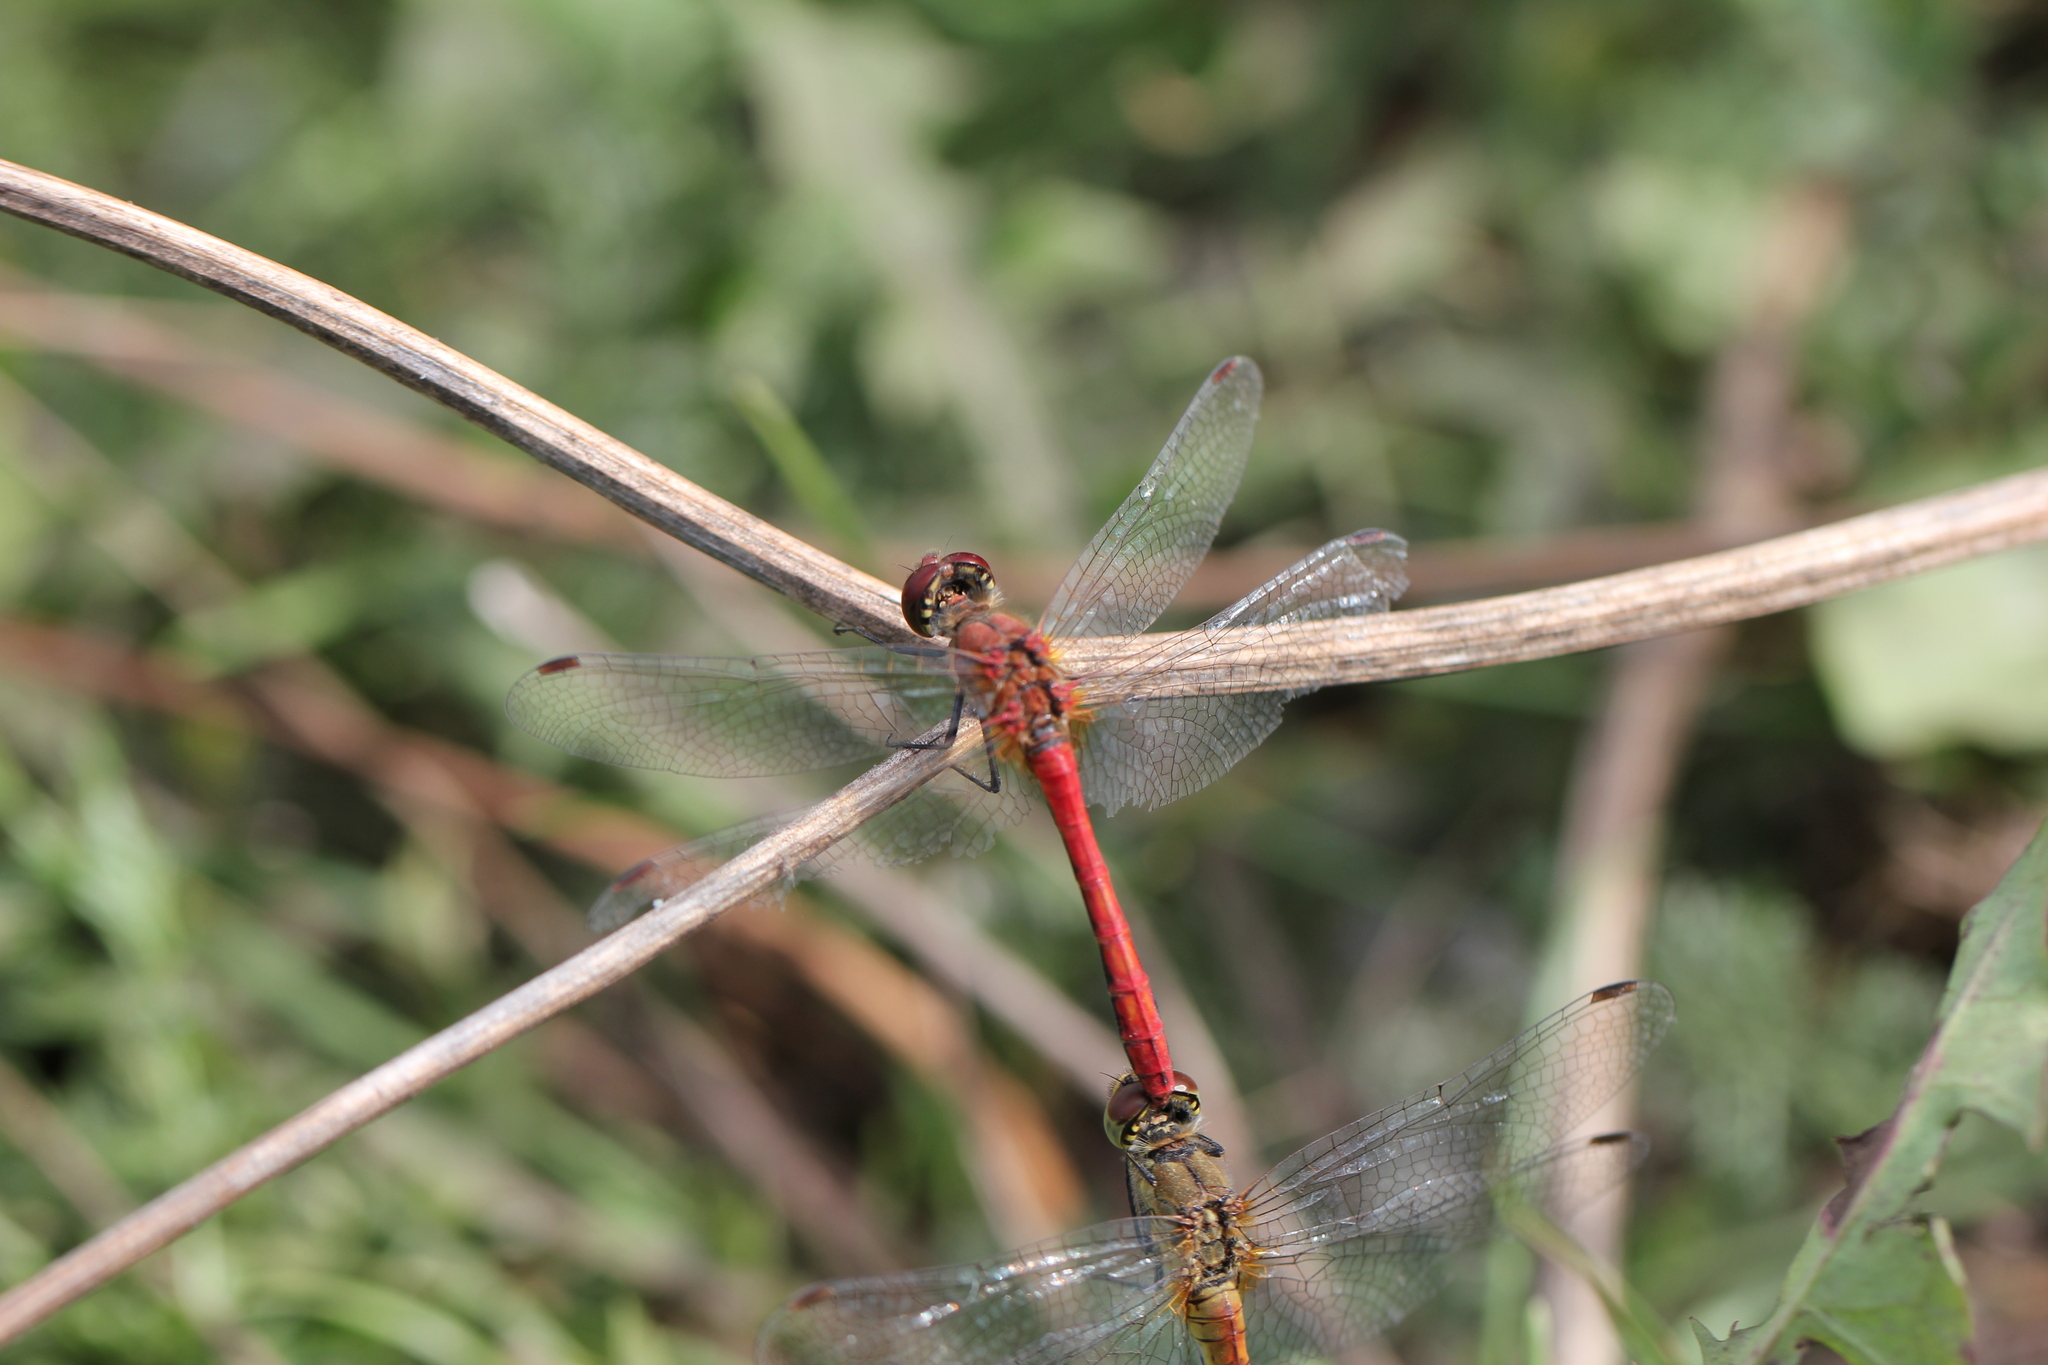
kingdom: Animalia
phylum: Arthropoda
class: Insecta
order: Odonata
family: Libellulidae
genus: Sympetrum
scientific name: Sympetrum sanguineum
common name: Ruddy darter
